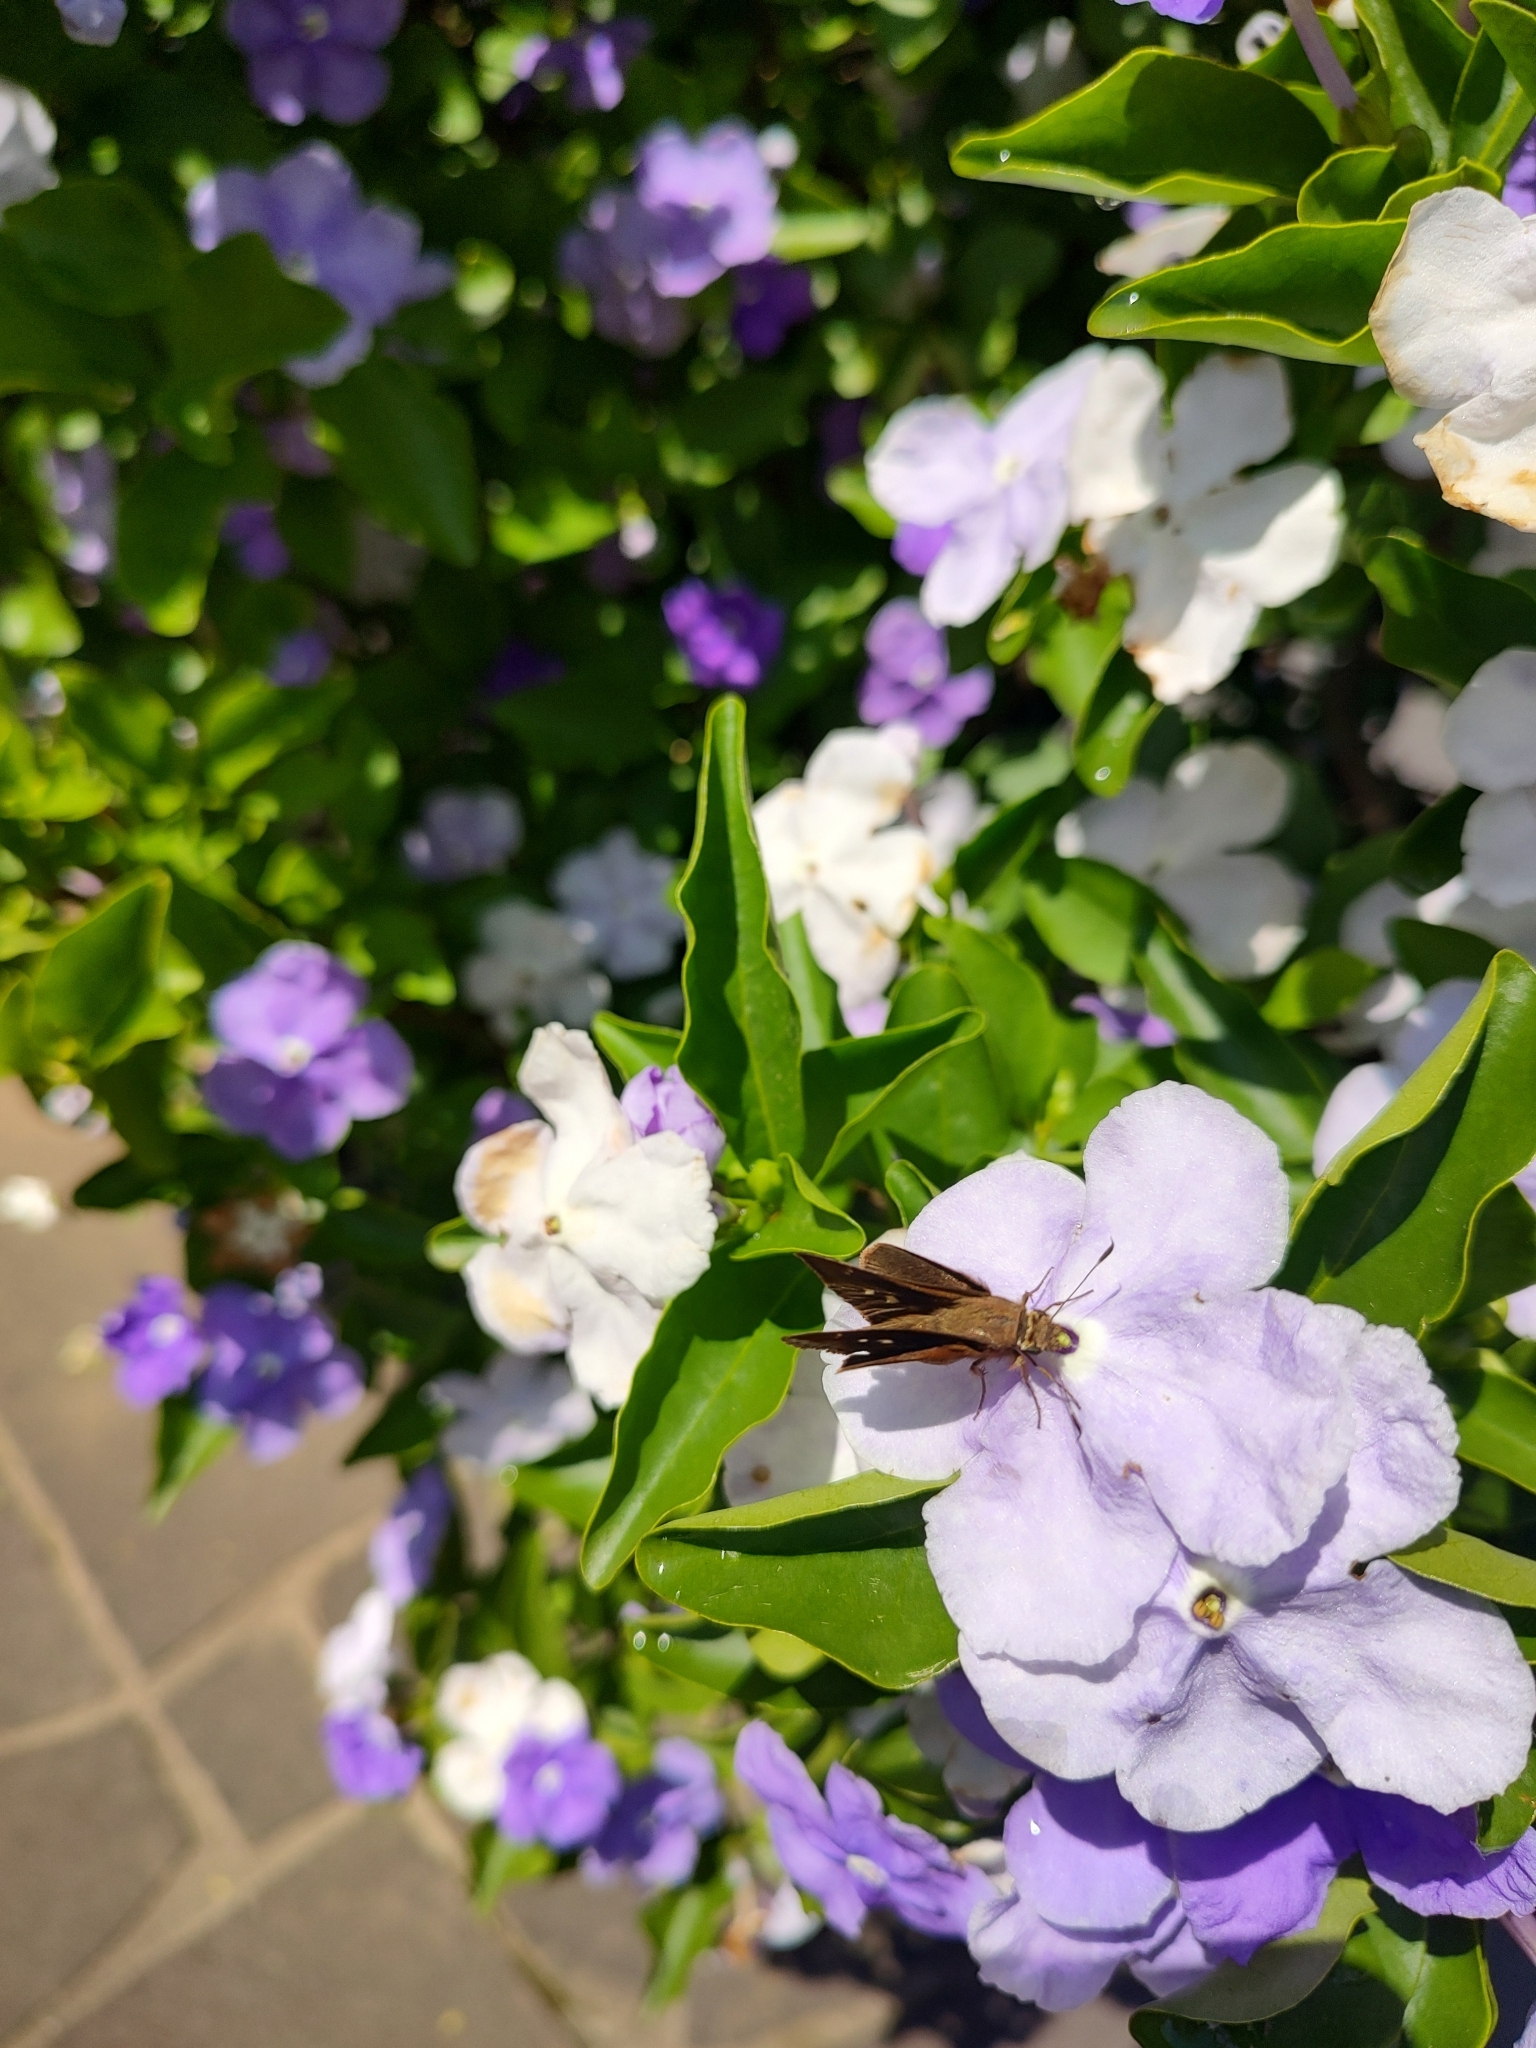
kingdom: Animalia
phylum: Arthropoda
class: Insecta
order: Lepidoptera
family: Hesperiidae
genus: Quinta
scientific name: Quinta cannae
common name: Canna skipper
